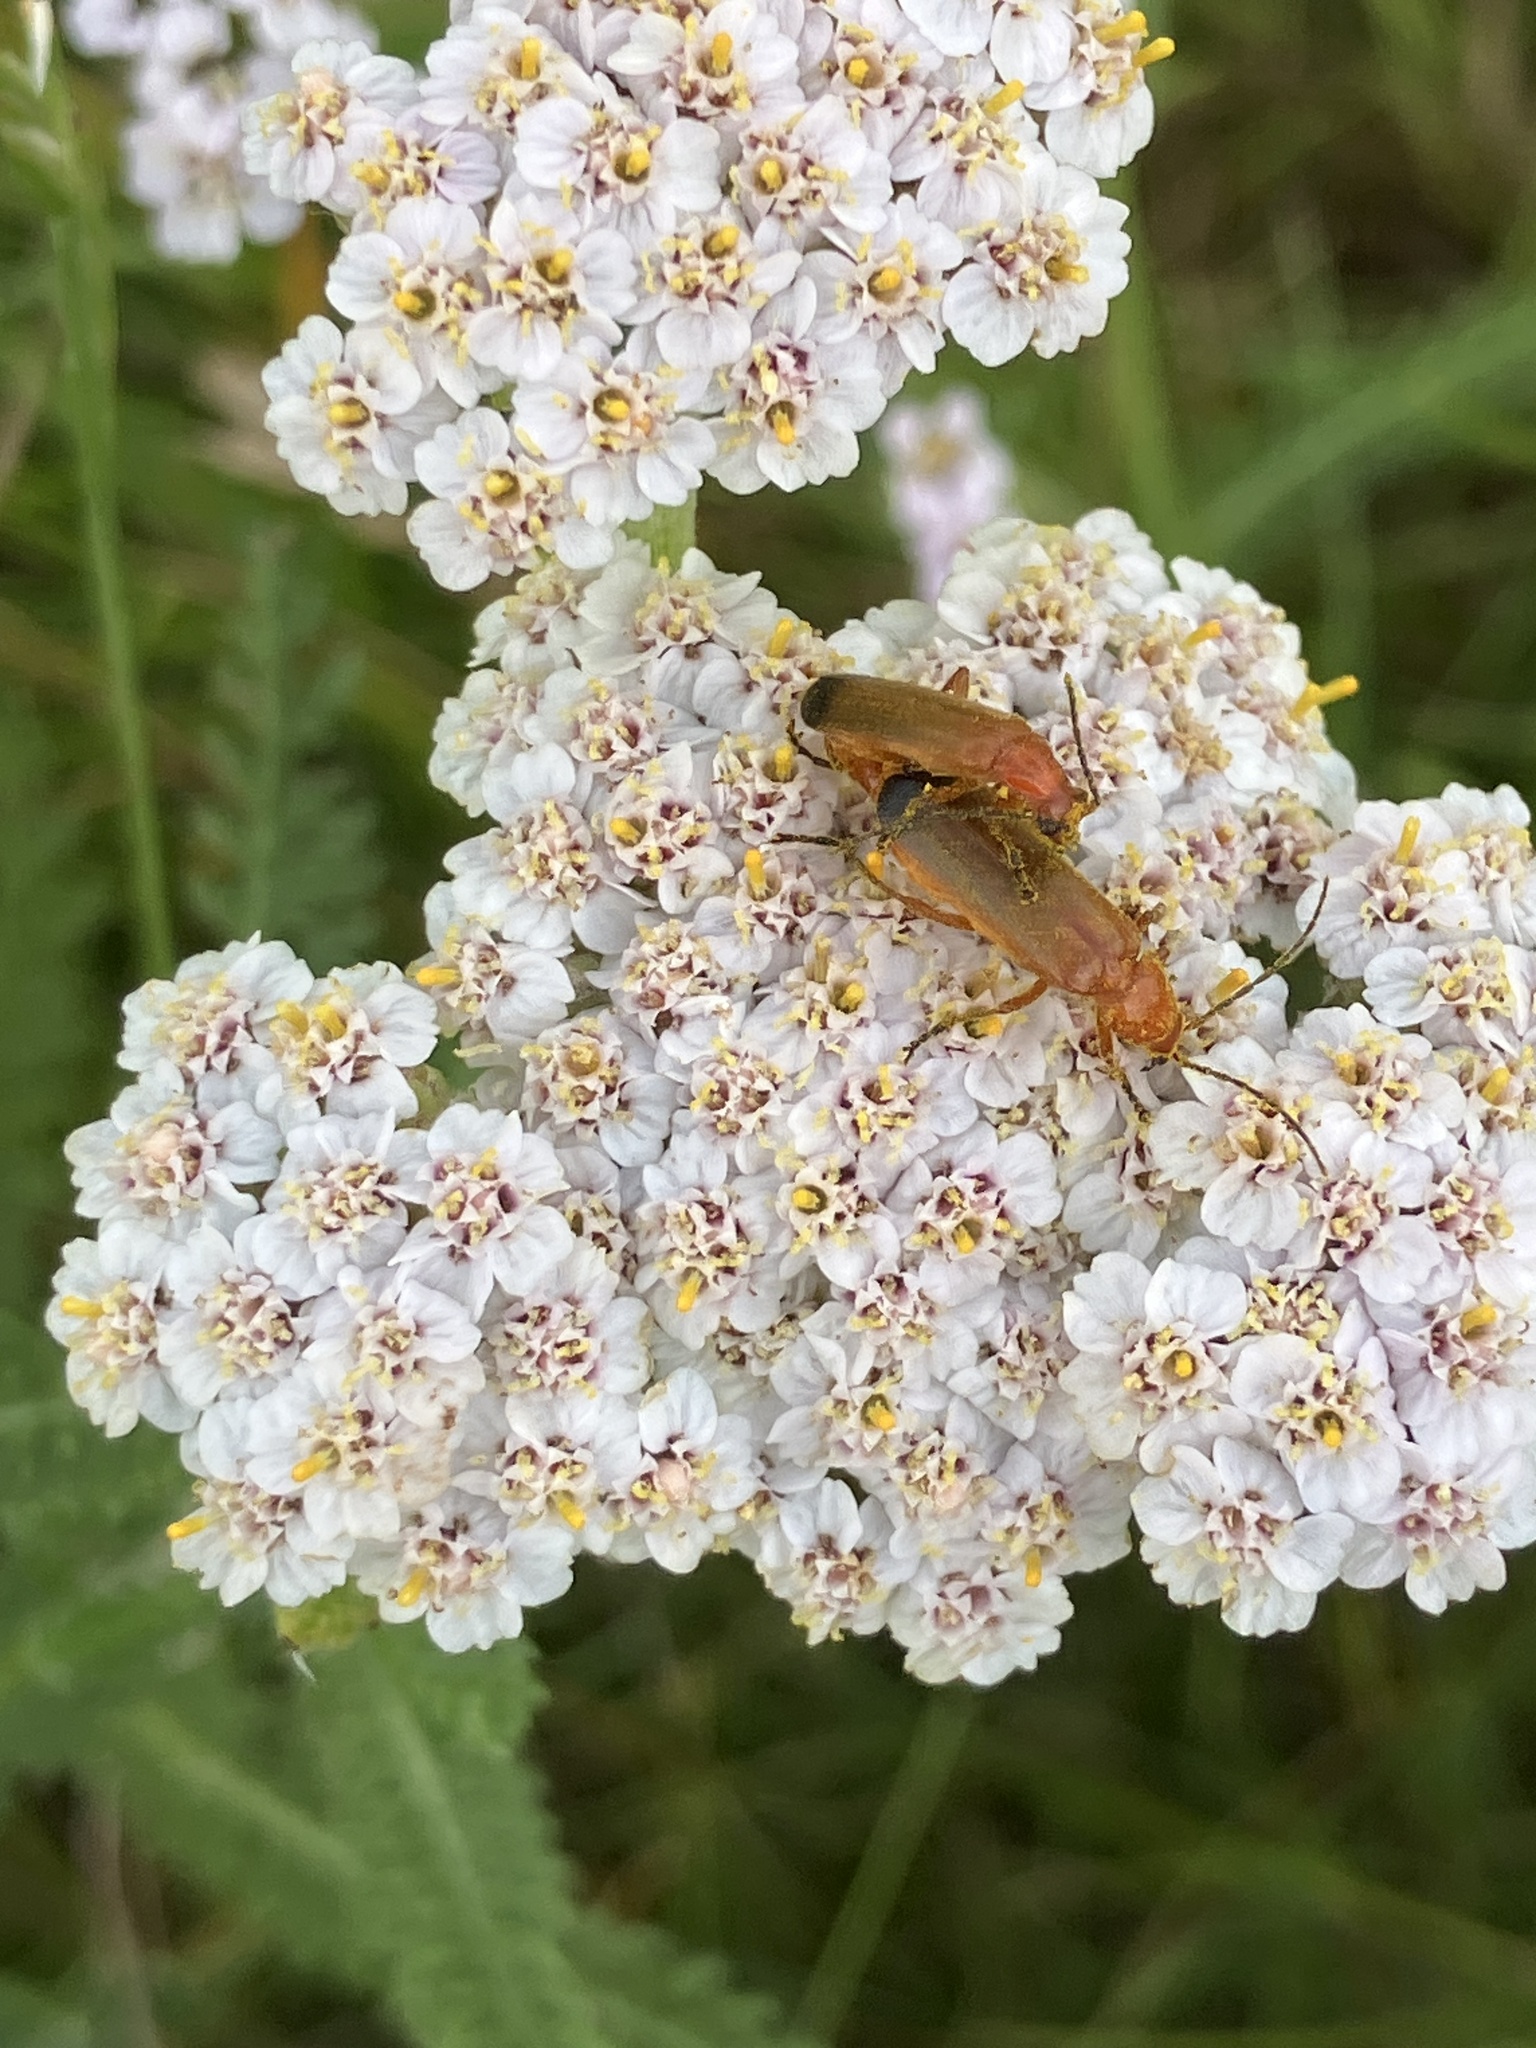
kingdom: Animalia
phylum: Arthropoda
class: Insecta
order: Coleoptera
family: Cantharidae
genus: Rhagonycha
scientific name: Rhagonycha fulva
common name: Common red soldier beetle
